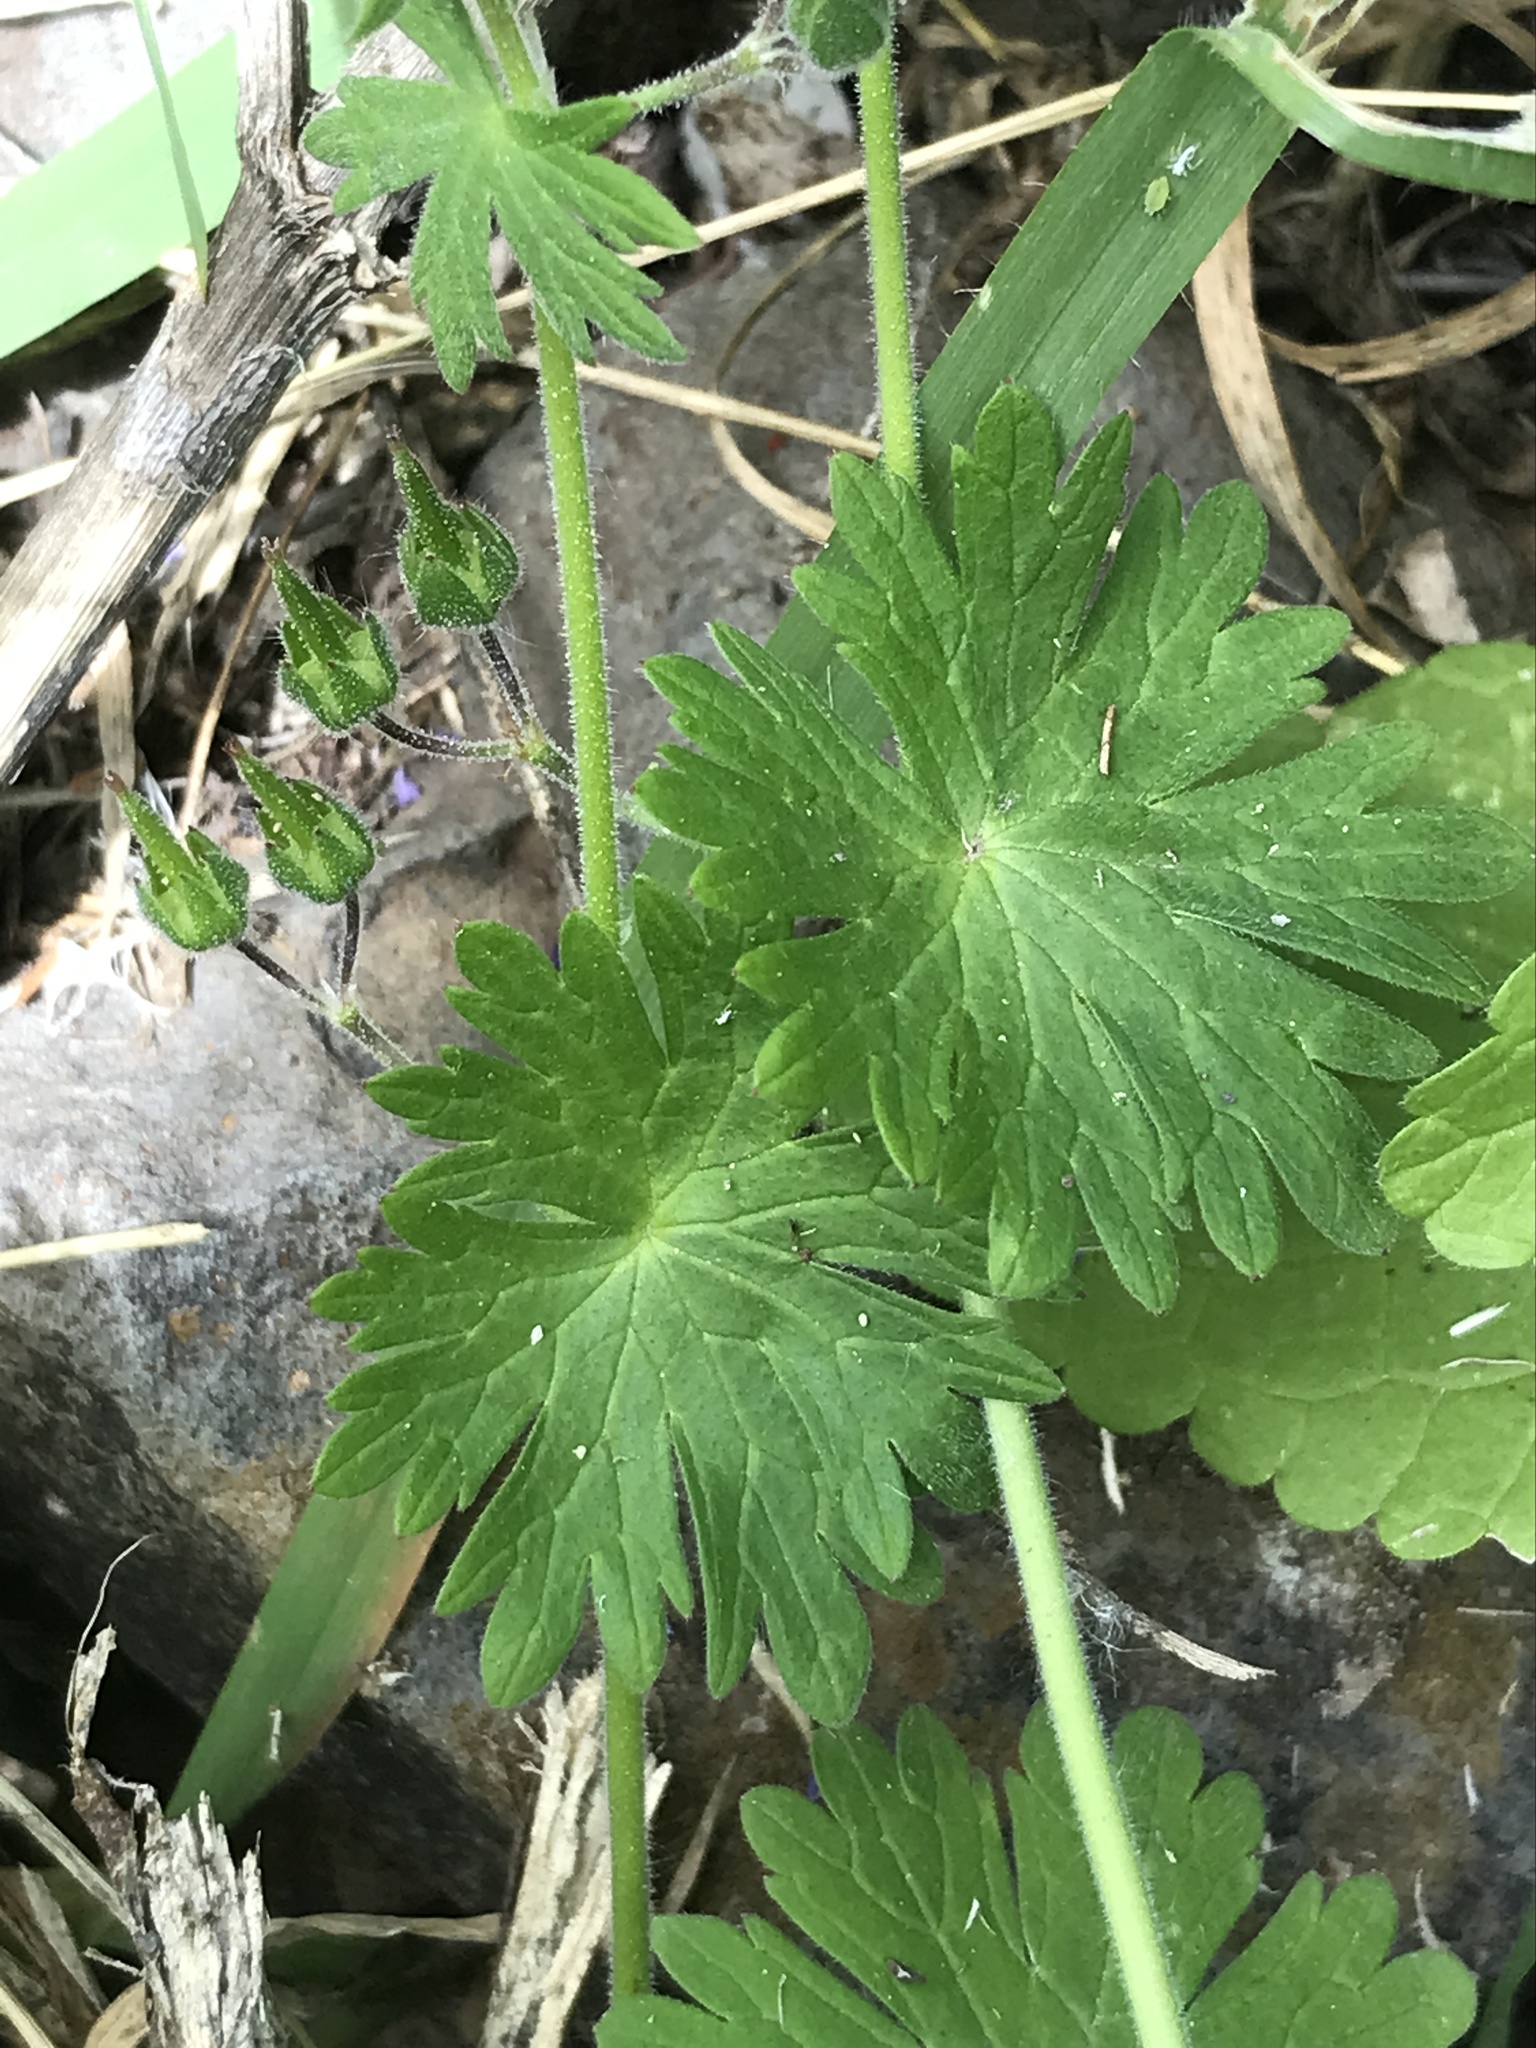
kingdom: Plantae
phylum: Tracheophyta
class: Magnoliopsida
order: Geraniales
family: Geraniaceae
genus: Geranium
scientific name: Geranium molle
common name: Dove's-foot crane's-bill
